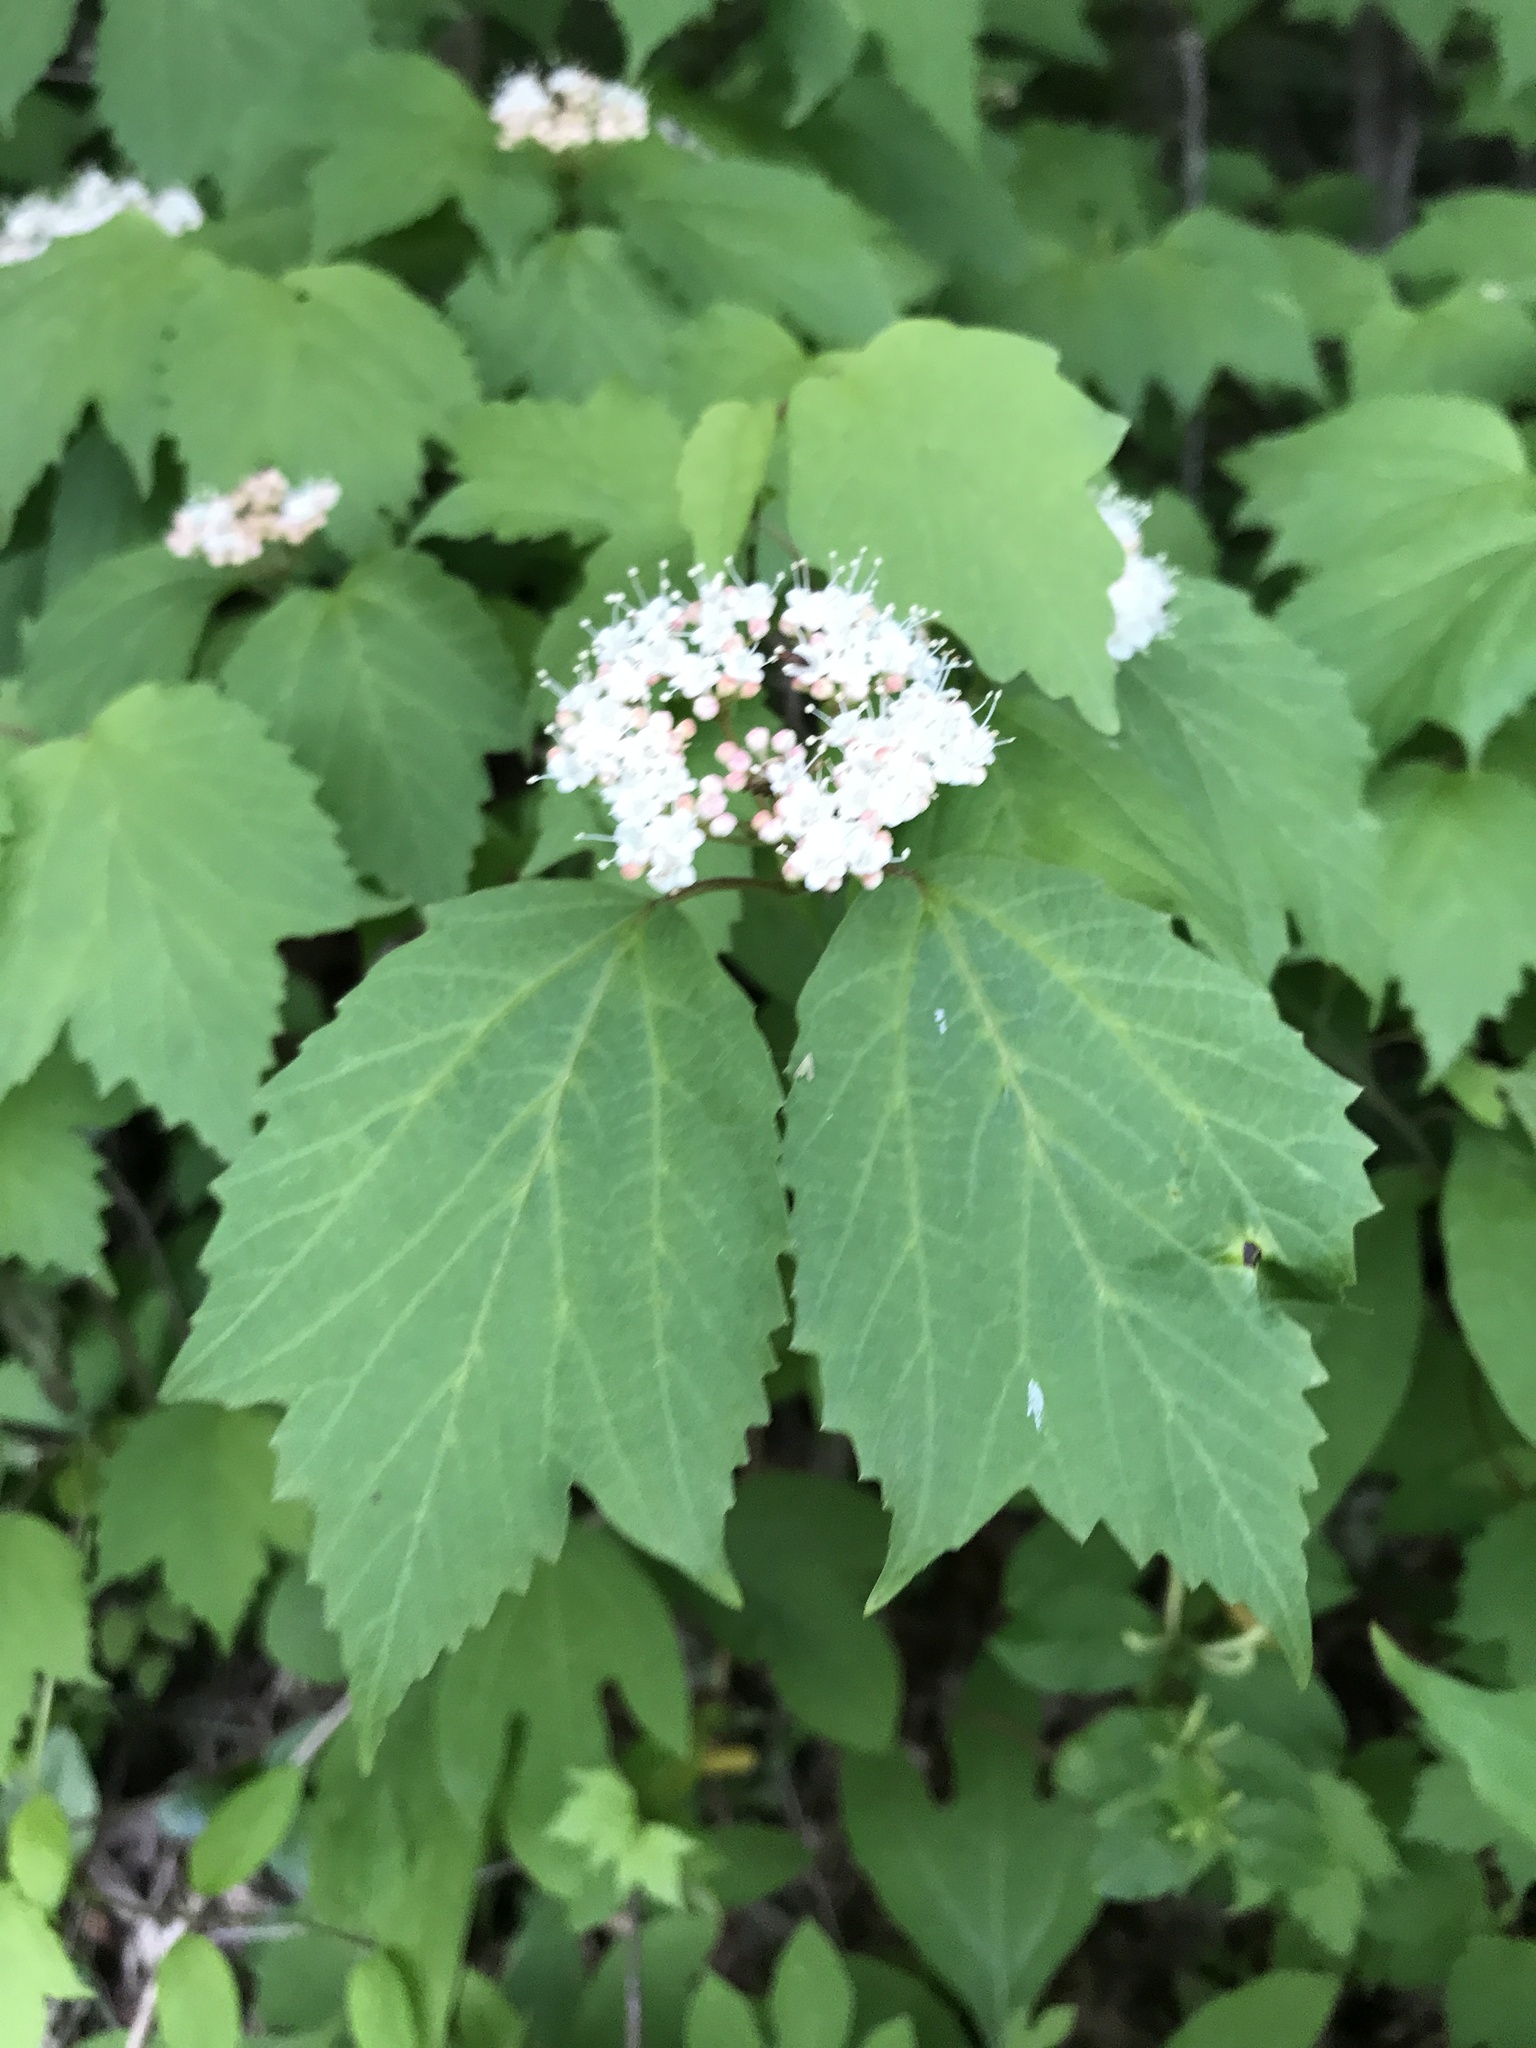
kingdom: Plantae
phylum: Tracheophyta
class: Magnoliopsida
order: Dipsacales
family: Viburnaceae
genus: Viburnum
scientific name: Viburnum acerifolium
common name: Dockmackie
